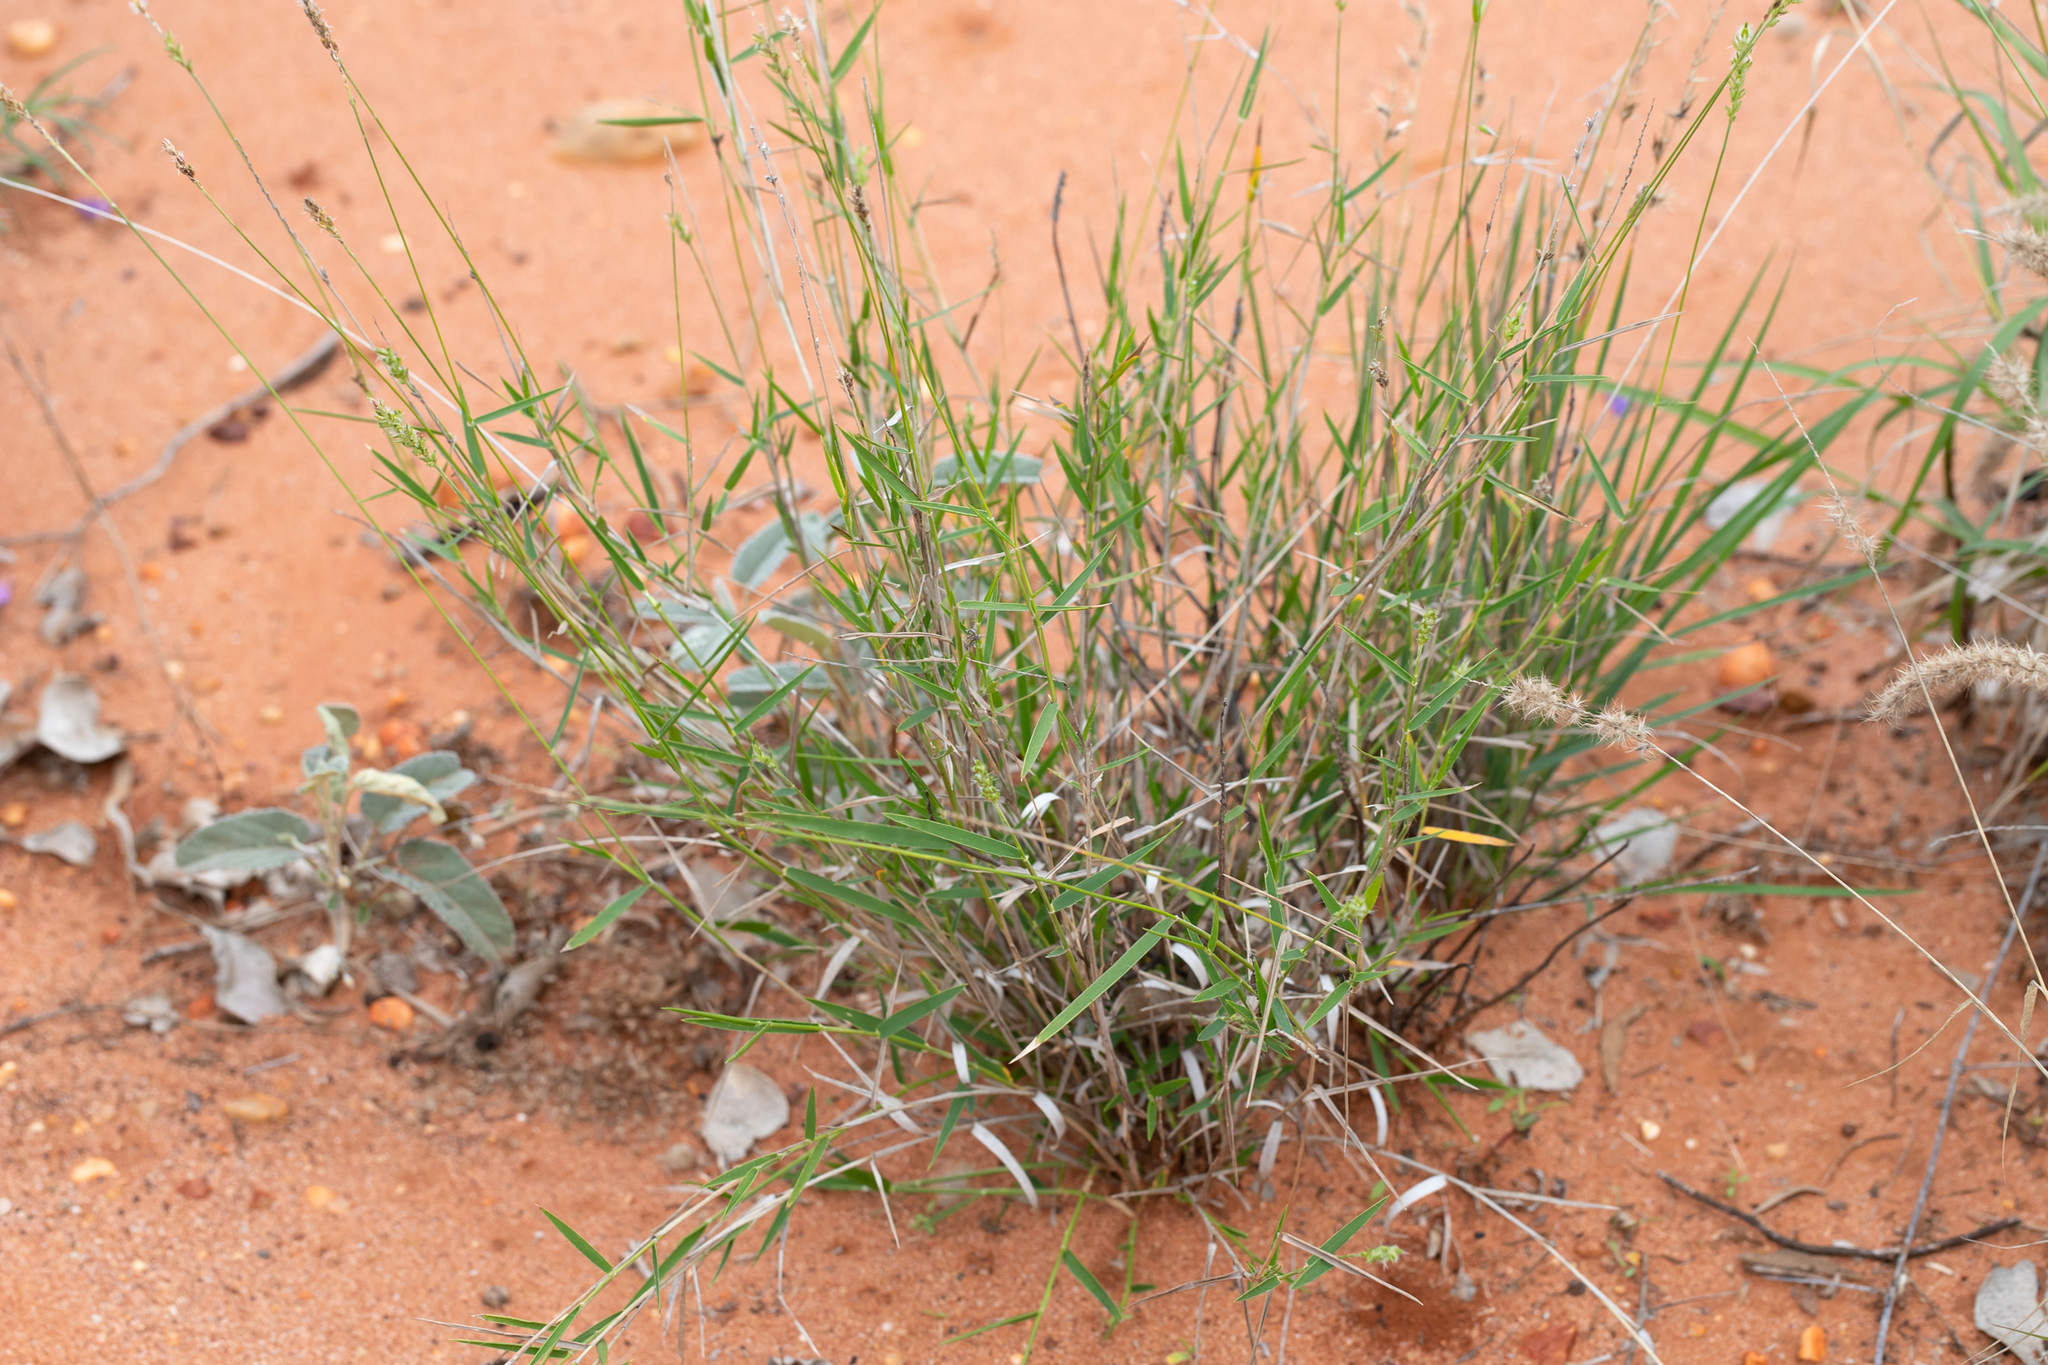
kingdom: Plantae
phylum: Tracheophyta
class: Liliopsida
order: Poales
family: Poaceae
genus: Thyridolepis
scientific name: Thyridolepis mitchelliana
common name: Rock tassel grass
